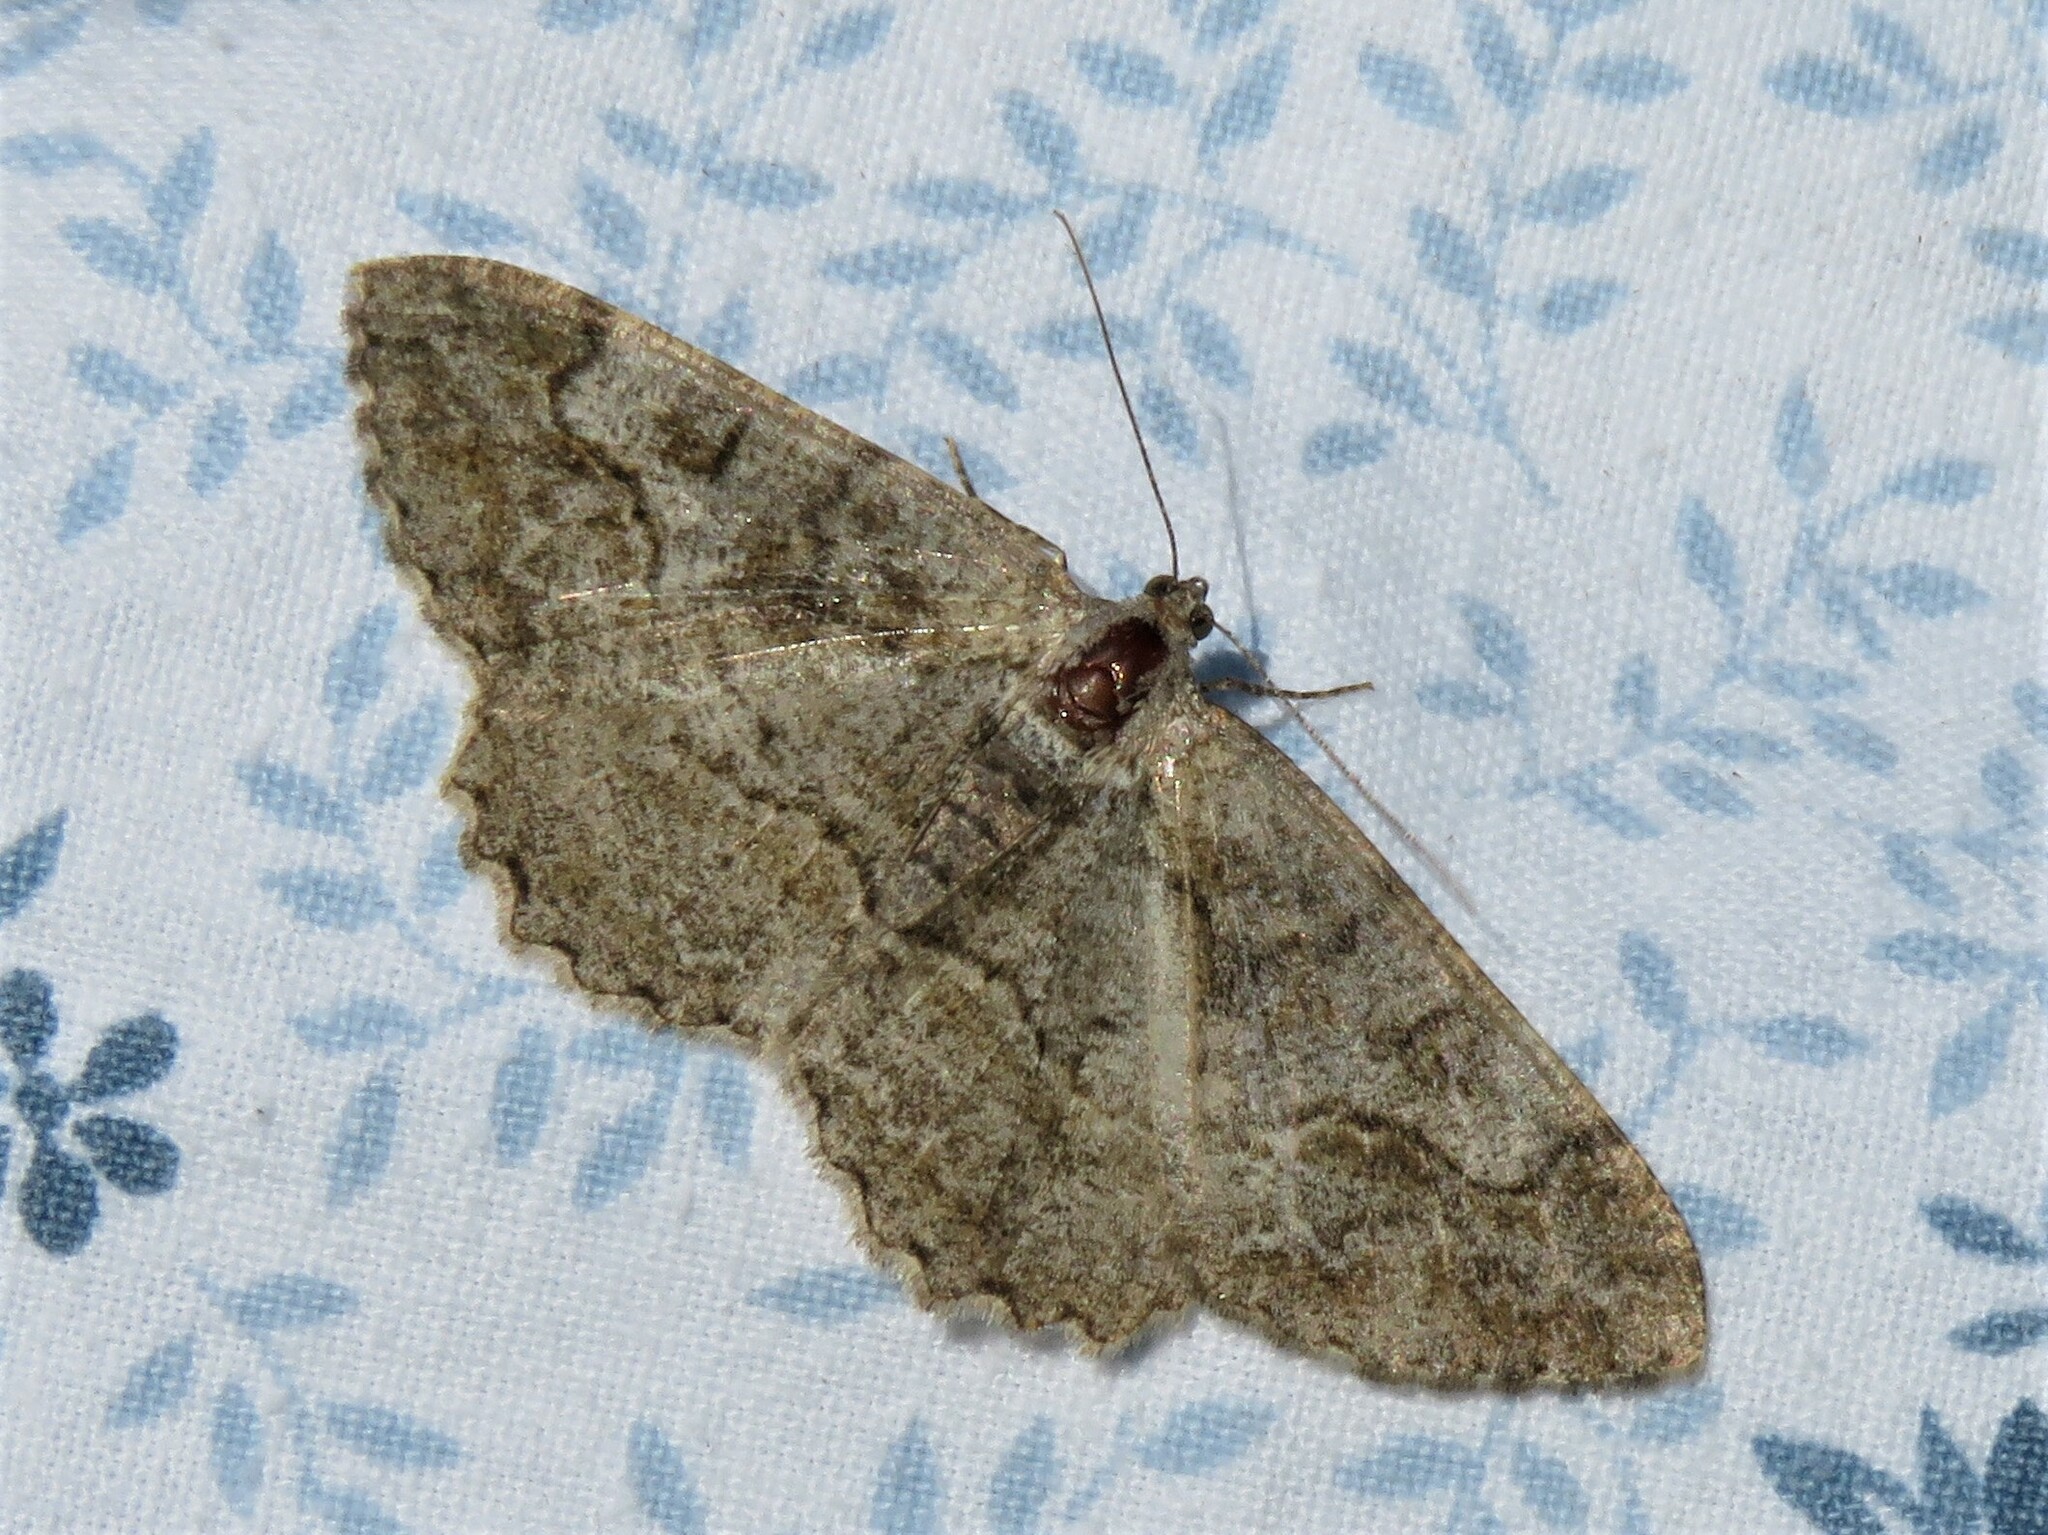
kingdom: Animalia
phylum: Arthropoda
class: Insecta
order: Lepidoptera
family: Geometridae
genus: Alcis
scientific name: Alcis repandata
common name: Mottled beauty
